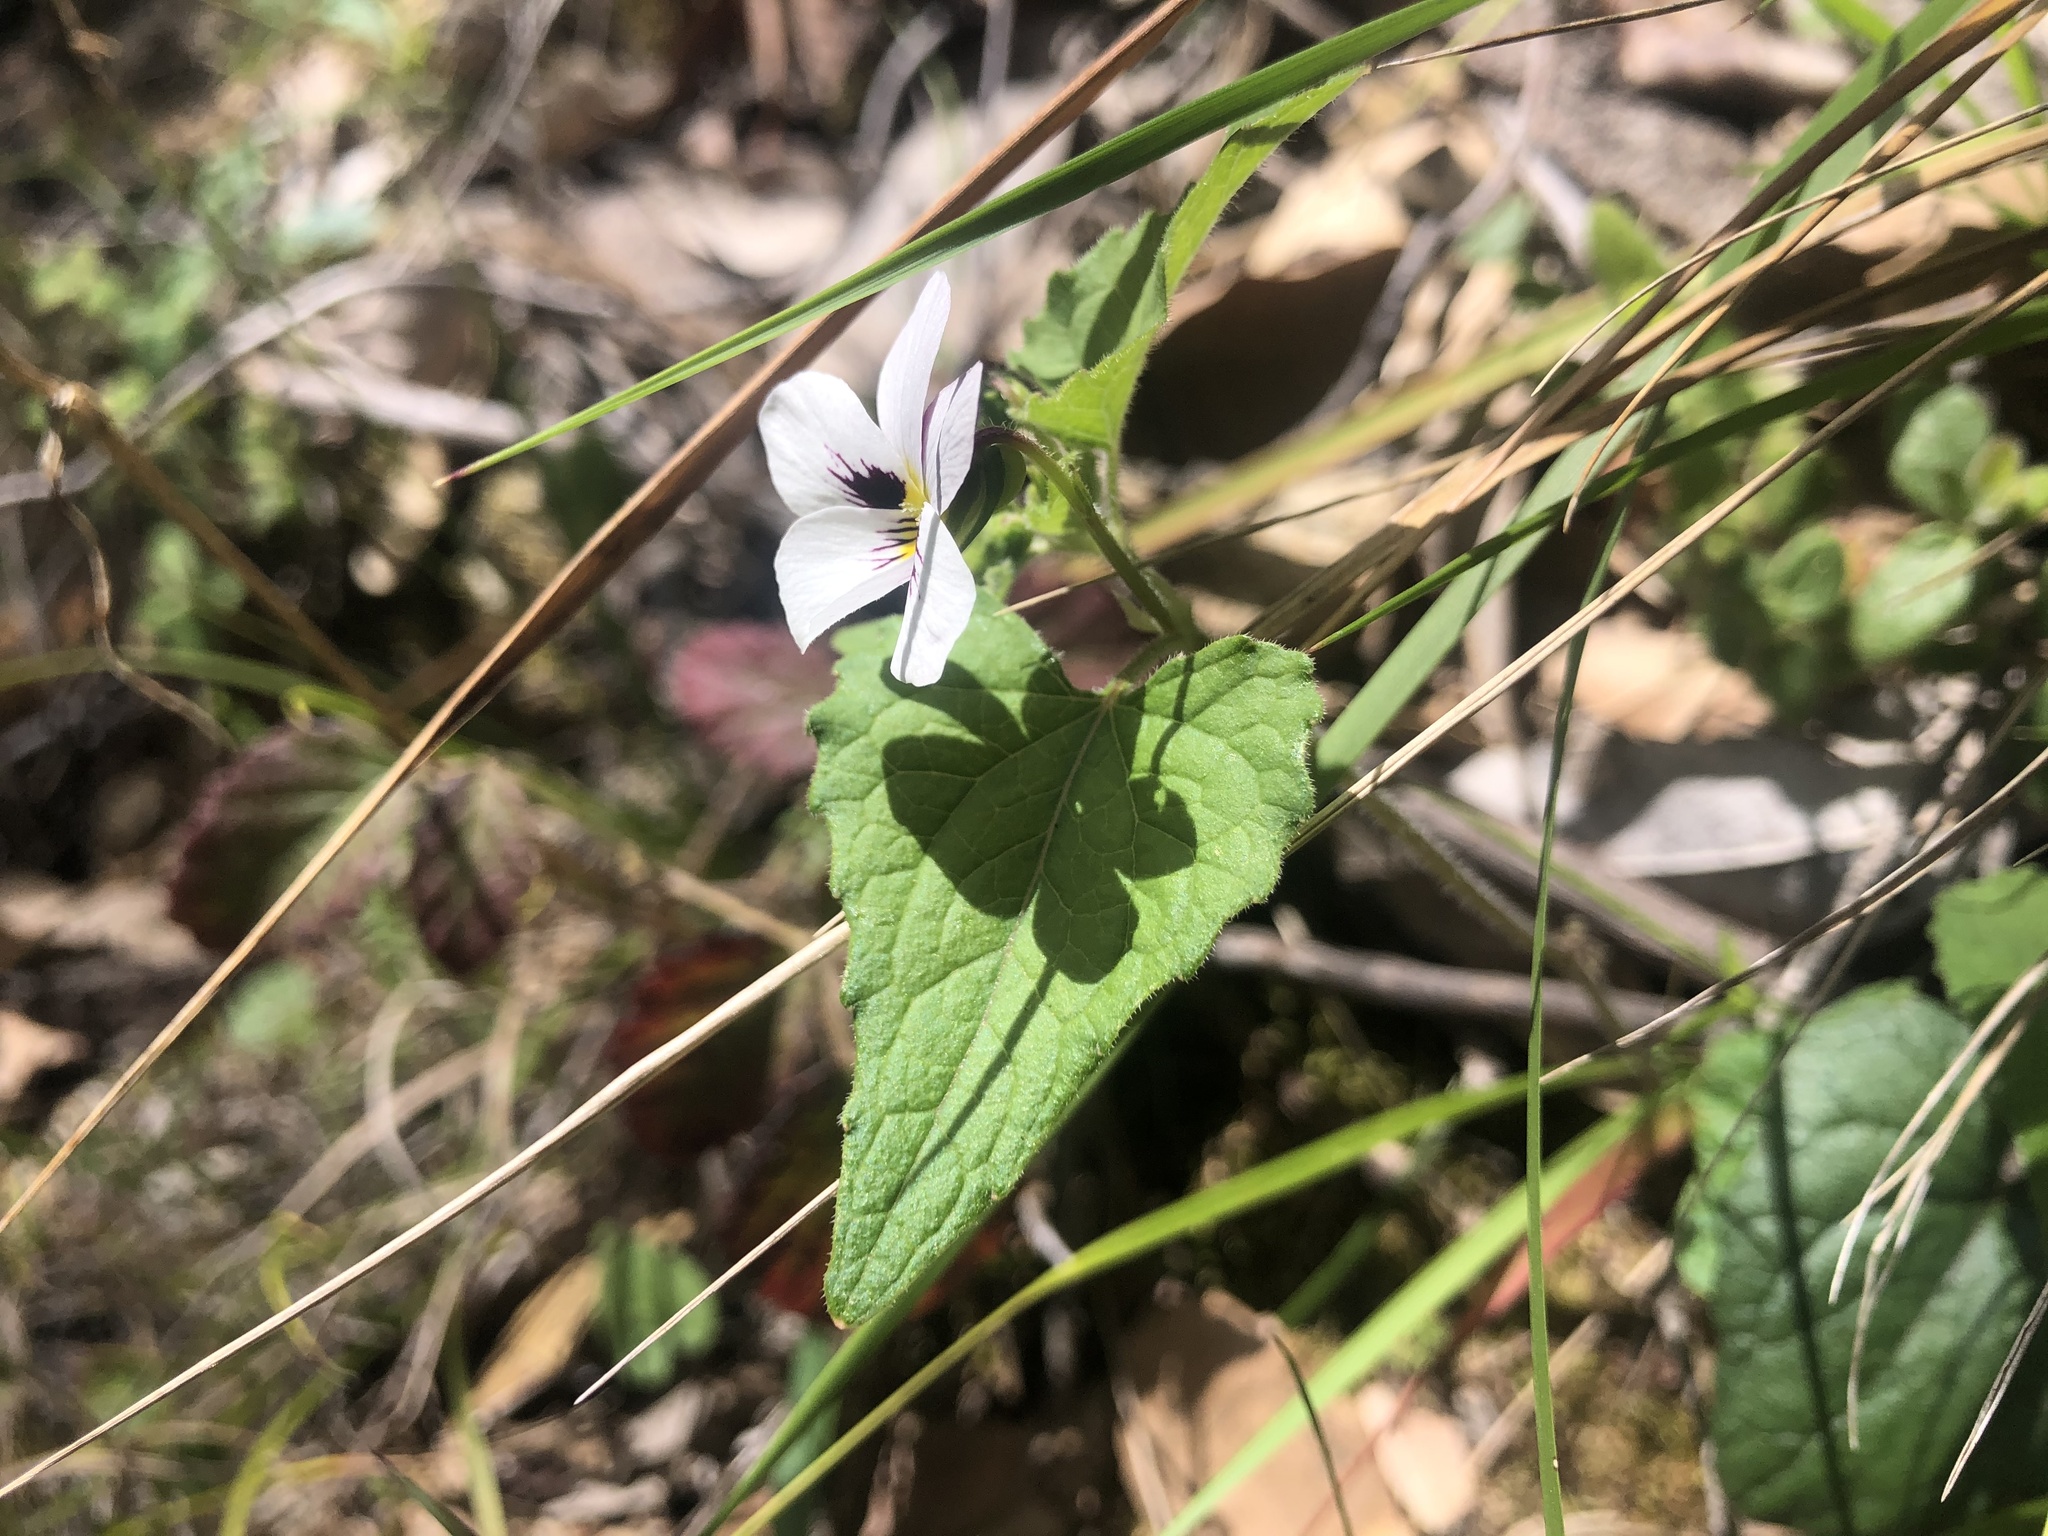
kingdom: Plantae
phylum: Tracheophyta
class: Magnoliopsida
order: Malpighiales
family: Violaceae
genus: Viola
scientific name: Viola ocellata
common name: Western heart's ease
